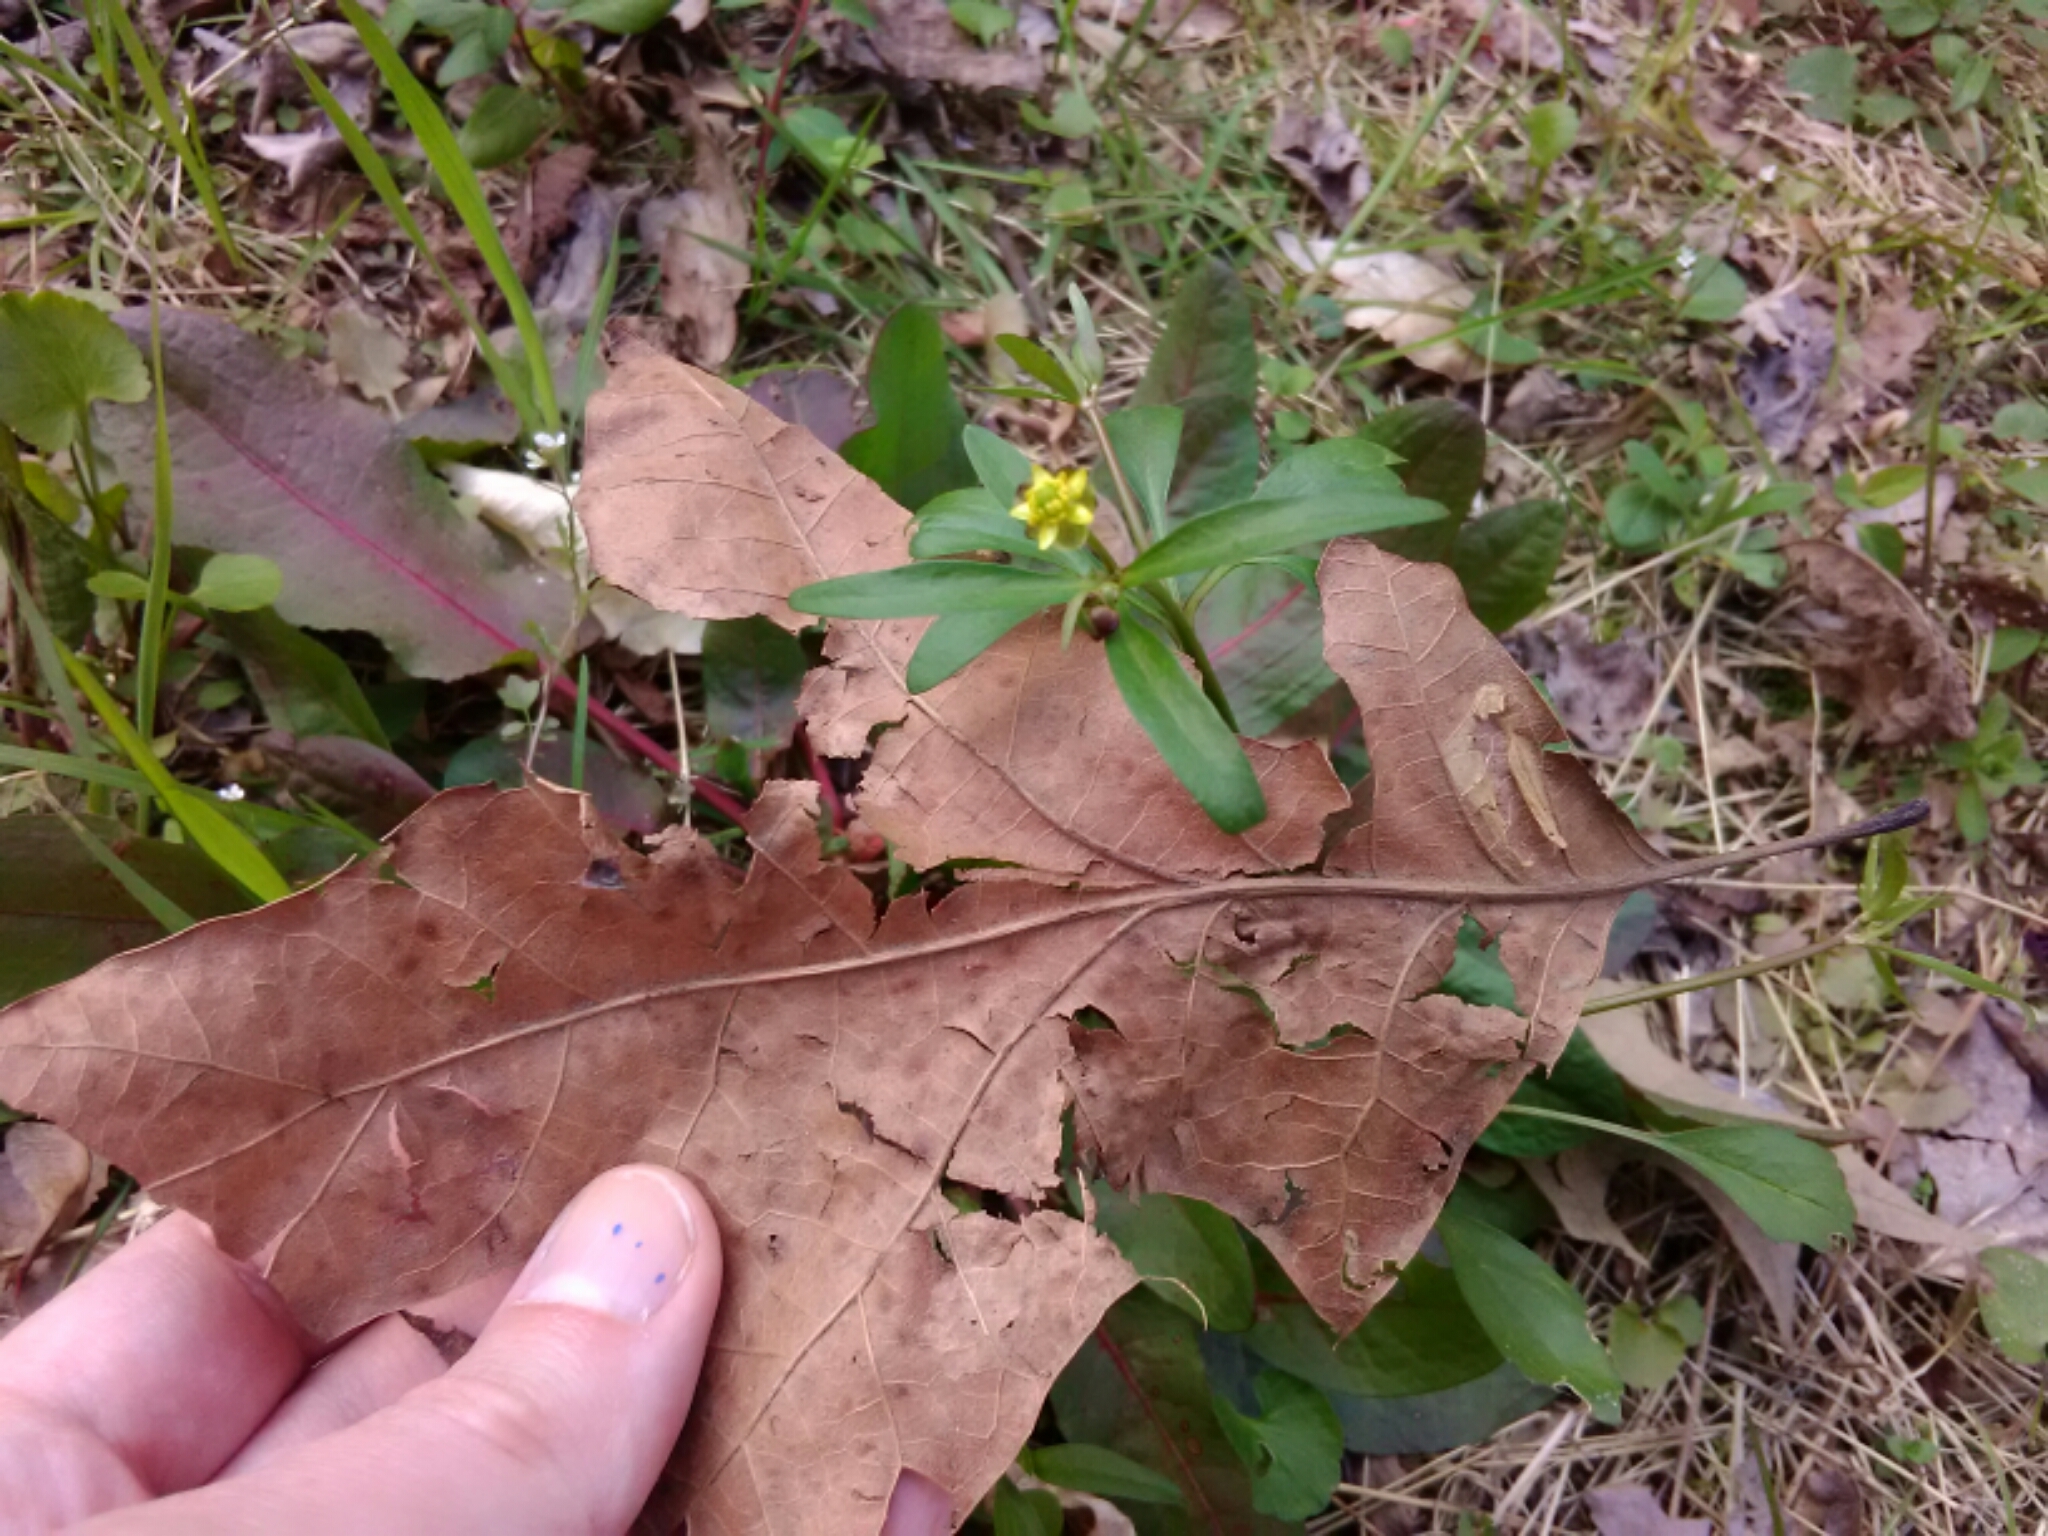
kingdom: Plantae
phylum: Tracheophyta
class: Magnoliopsida
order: Ranunculales
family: Ranunculaceae
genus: Ranunculus
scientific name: Ranunculus abortivus
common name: Early wood buttercup
